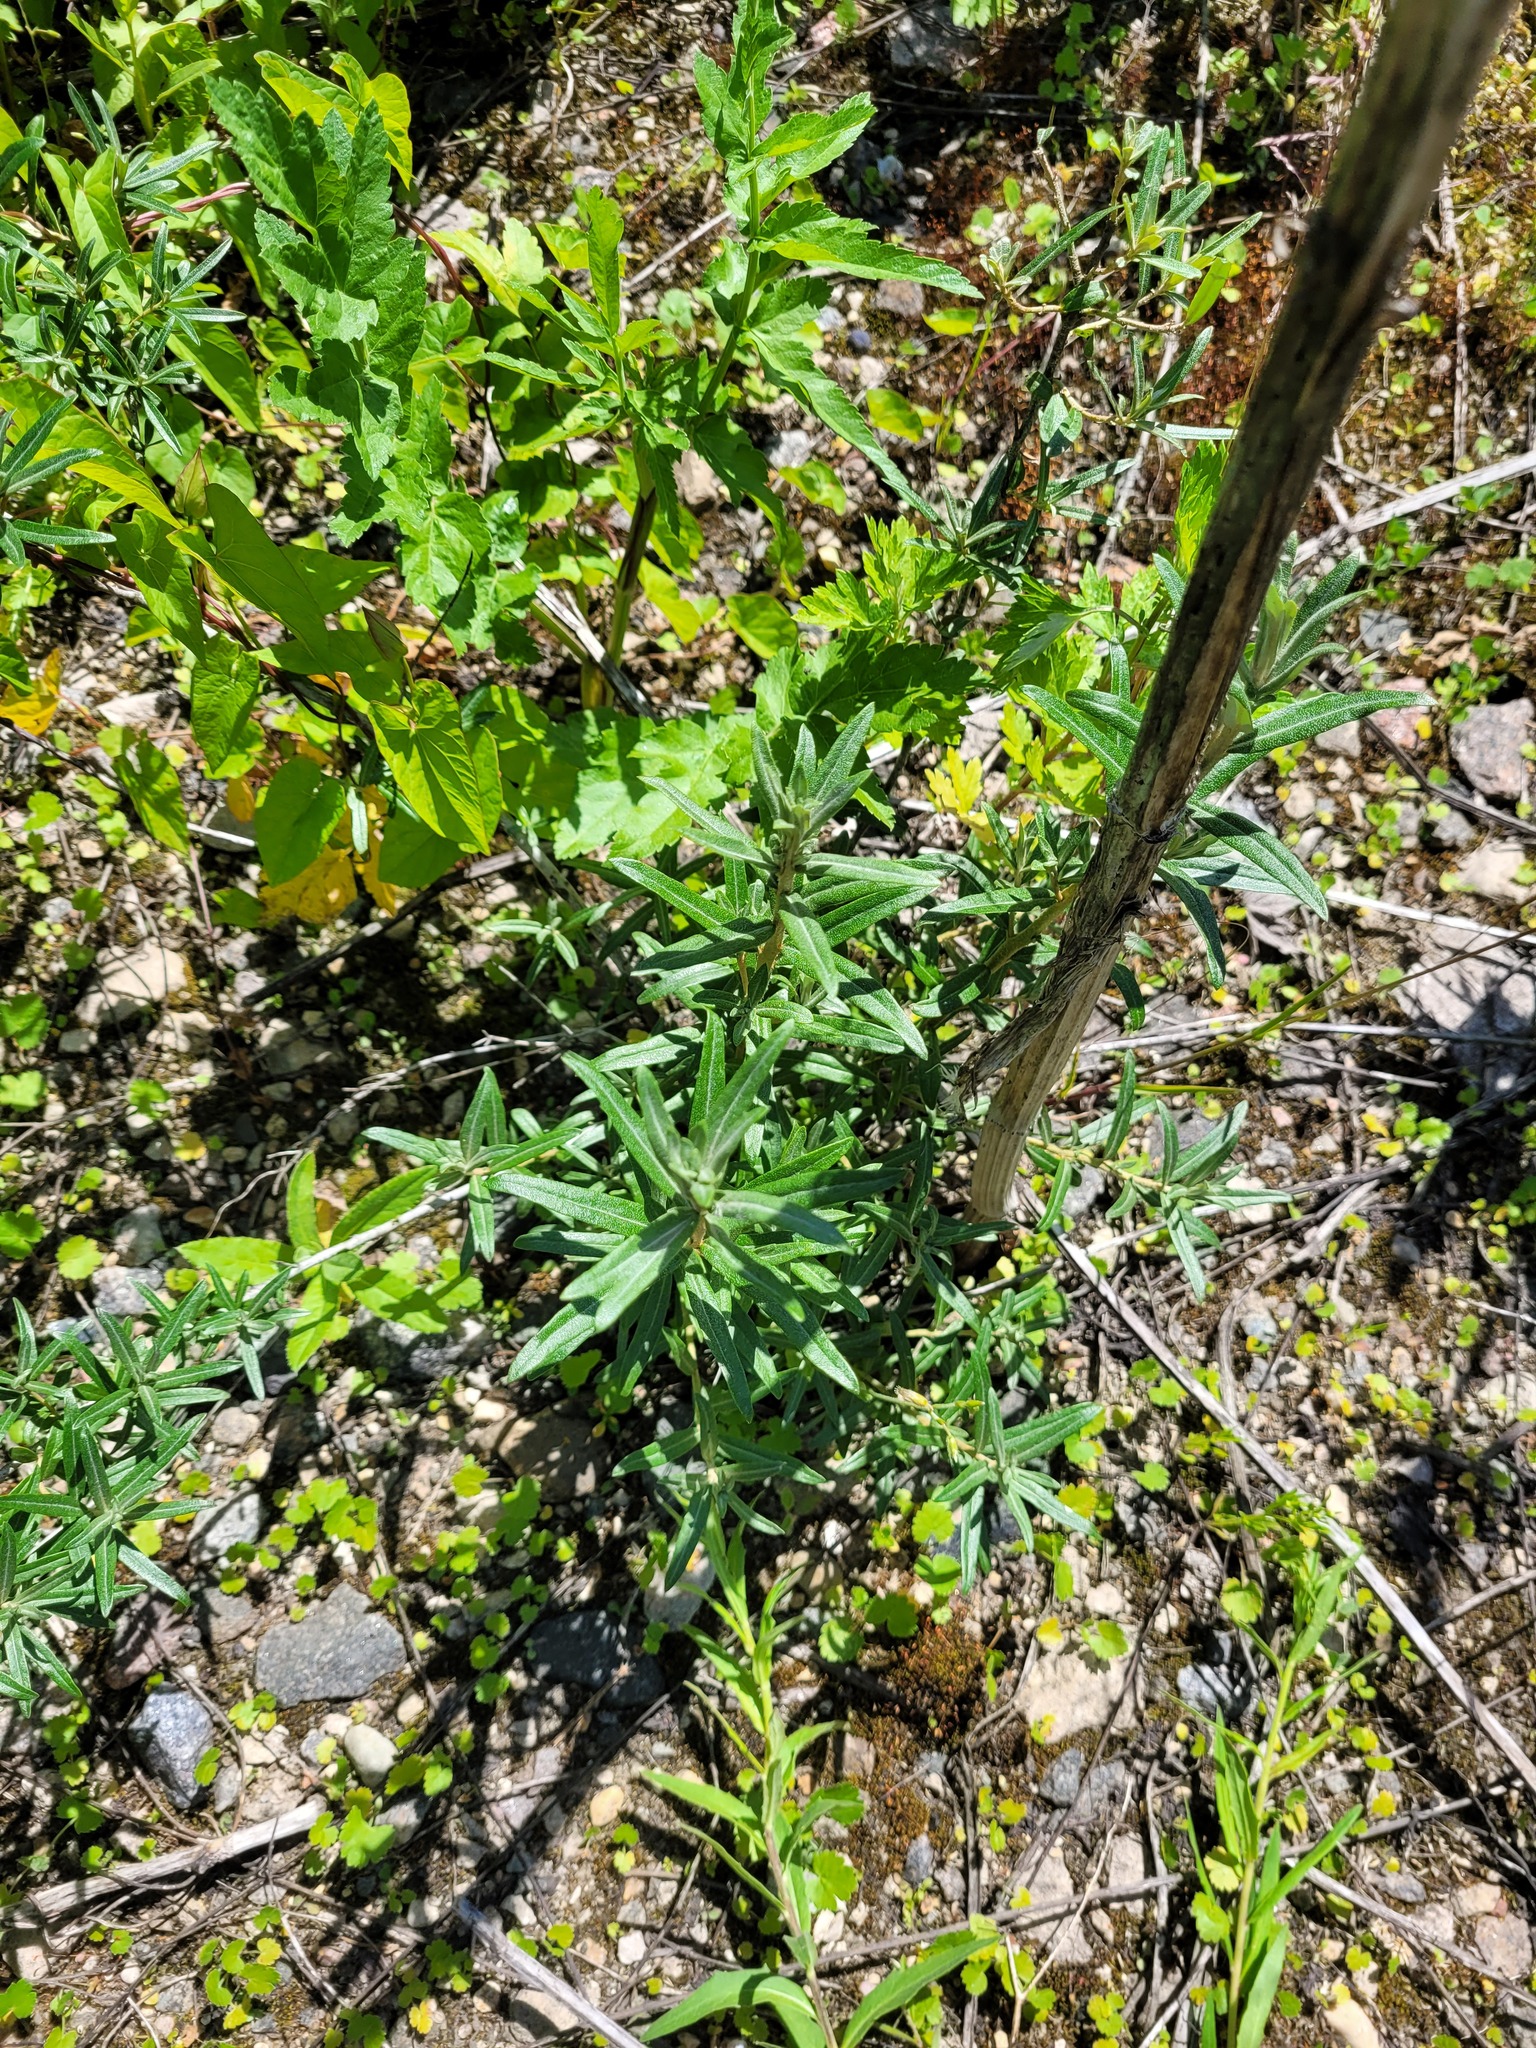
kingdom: Plantae
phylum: Tracheophyta
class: Magnoliopsida
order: Rosales
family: Elaeagnaceae
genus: Hippophae
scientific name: Hippophae rhamnoides
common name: Sea-buckthorn
